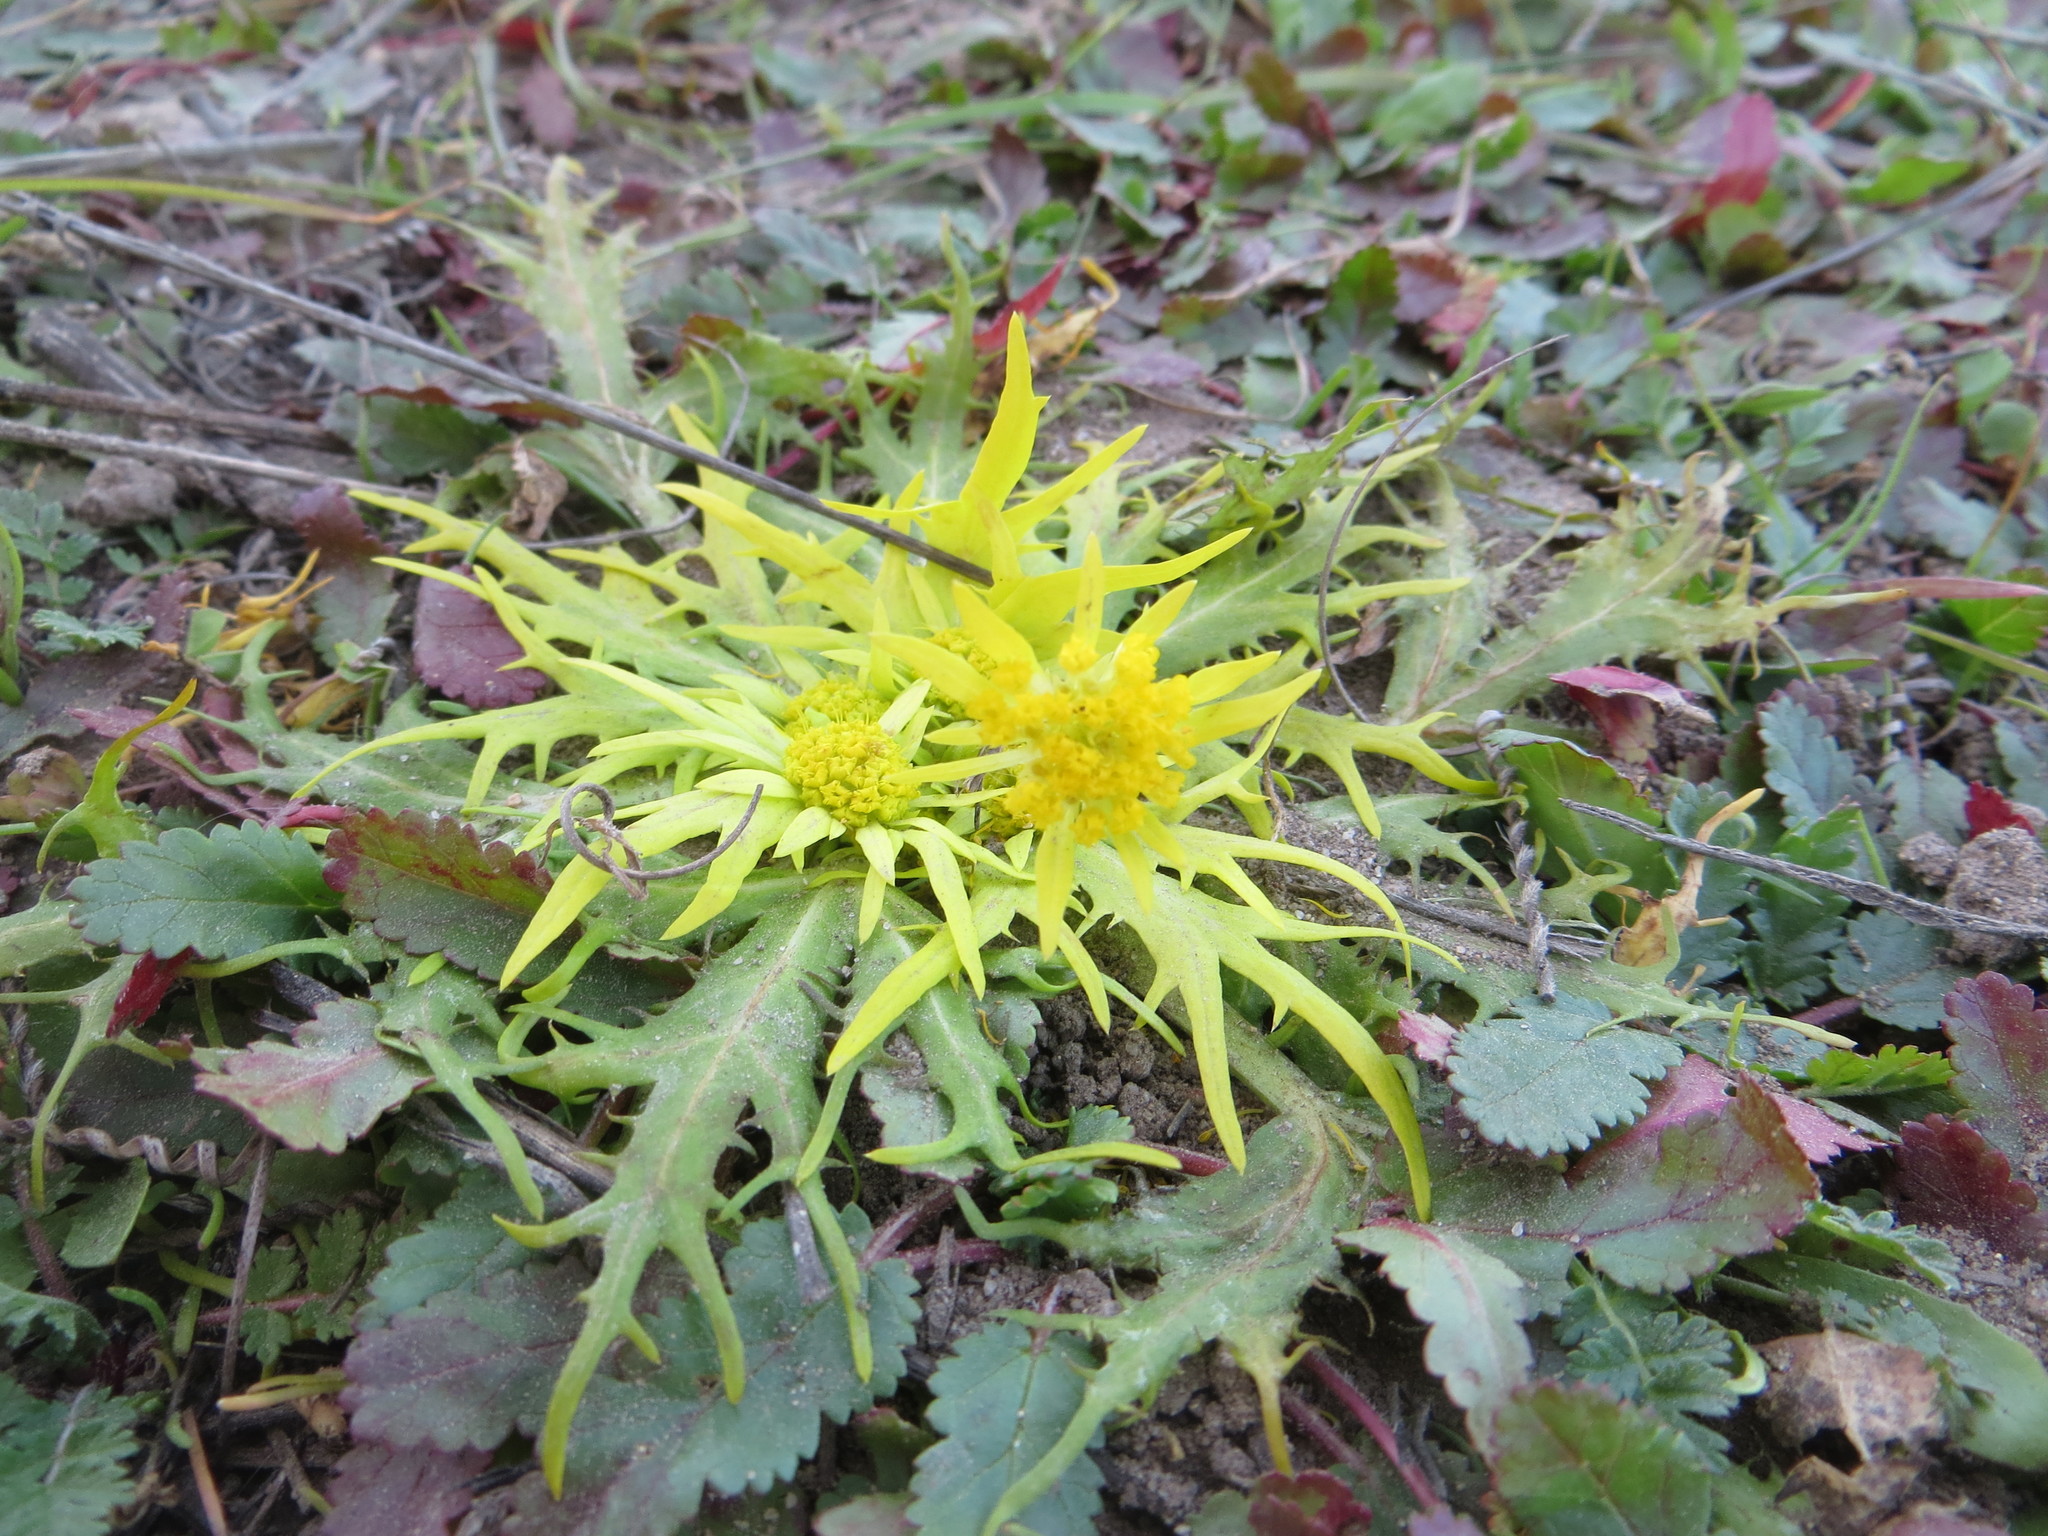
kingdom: Plantae
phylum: Tracheophyta
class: Magnoliopsida
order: Apiales
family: Apiaceae
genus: Sanicula
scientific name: Sanicula arctopoides
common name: Footsteps-of-spring
